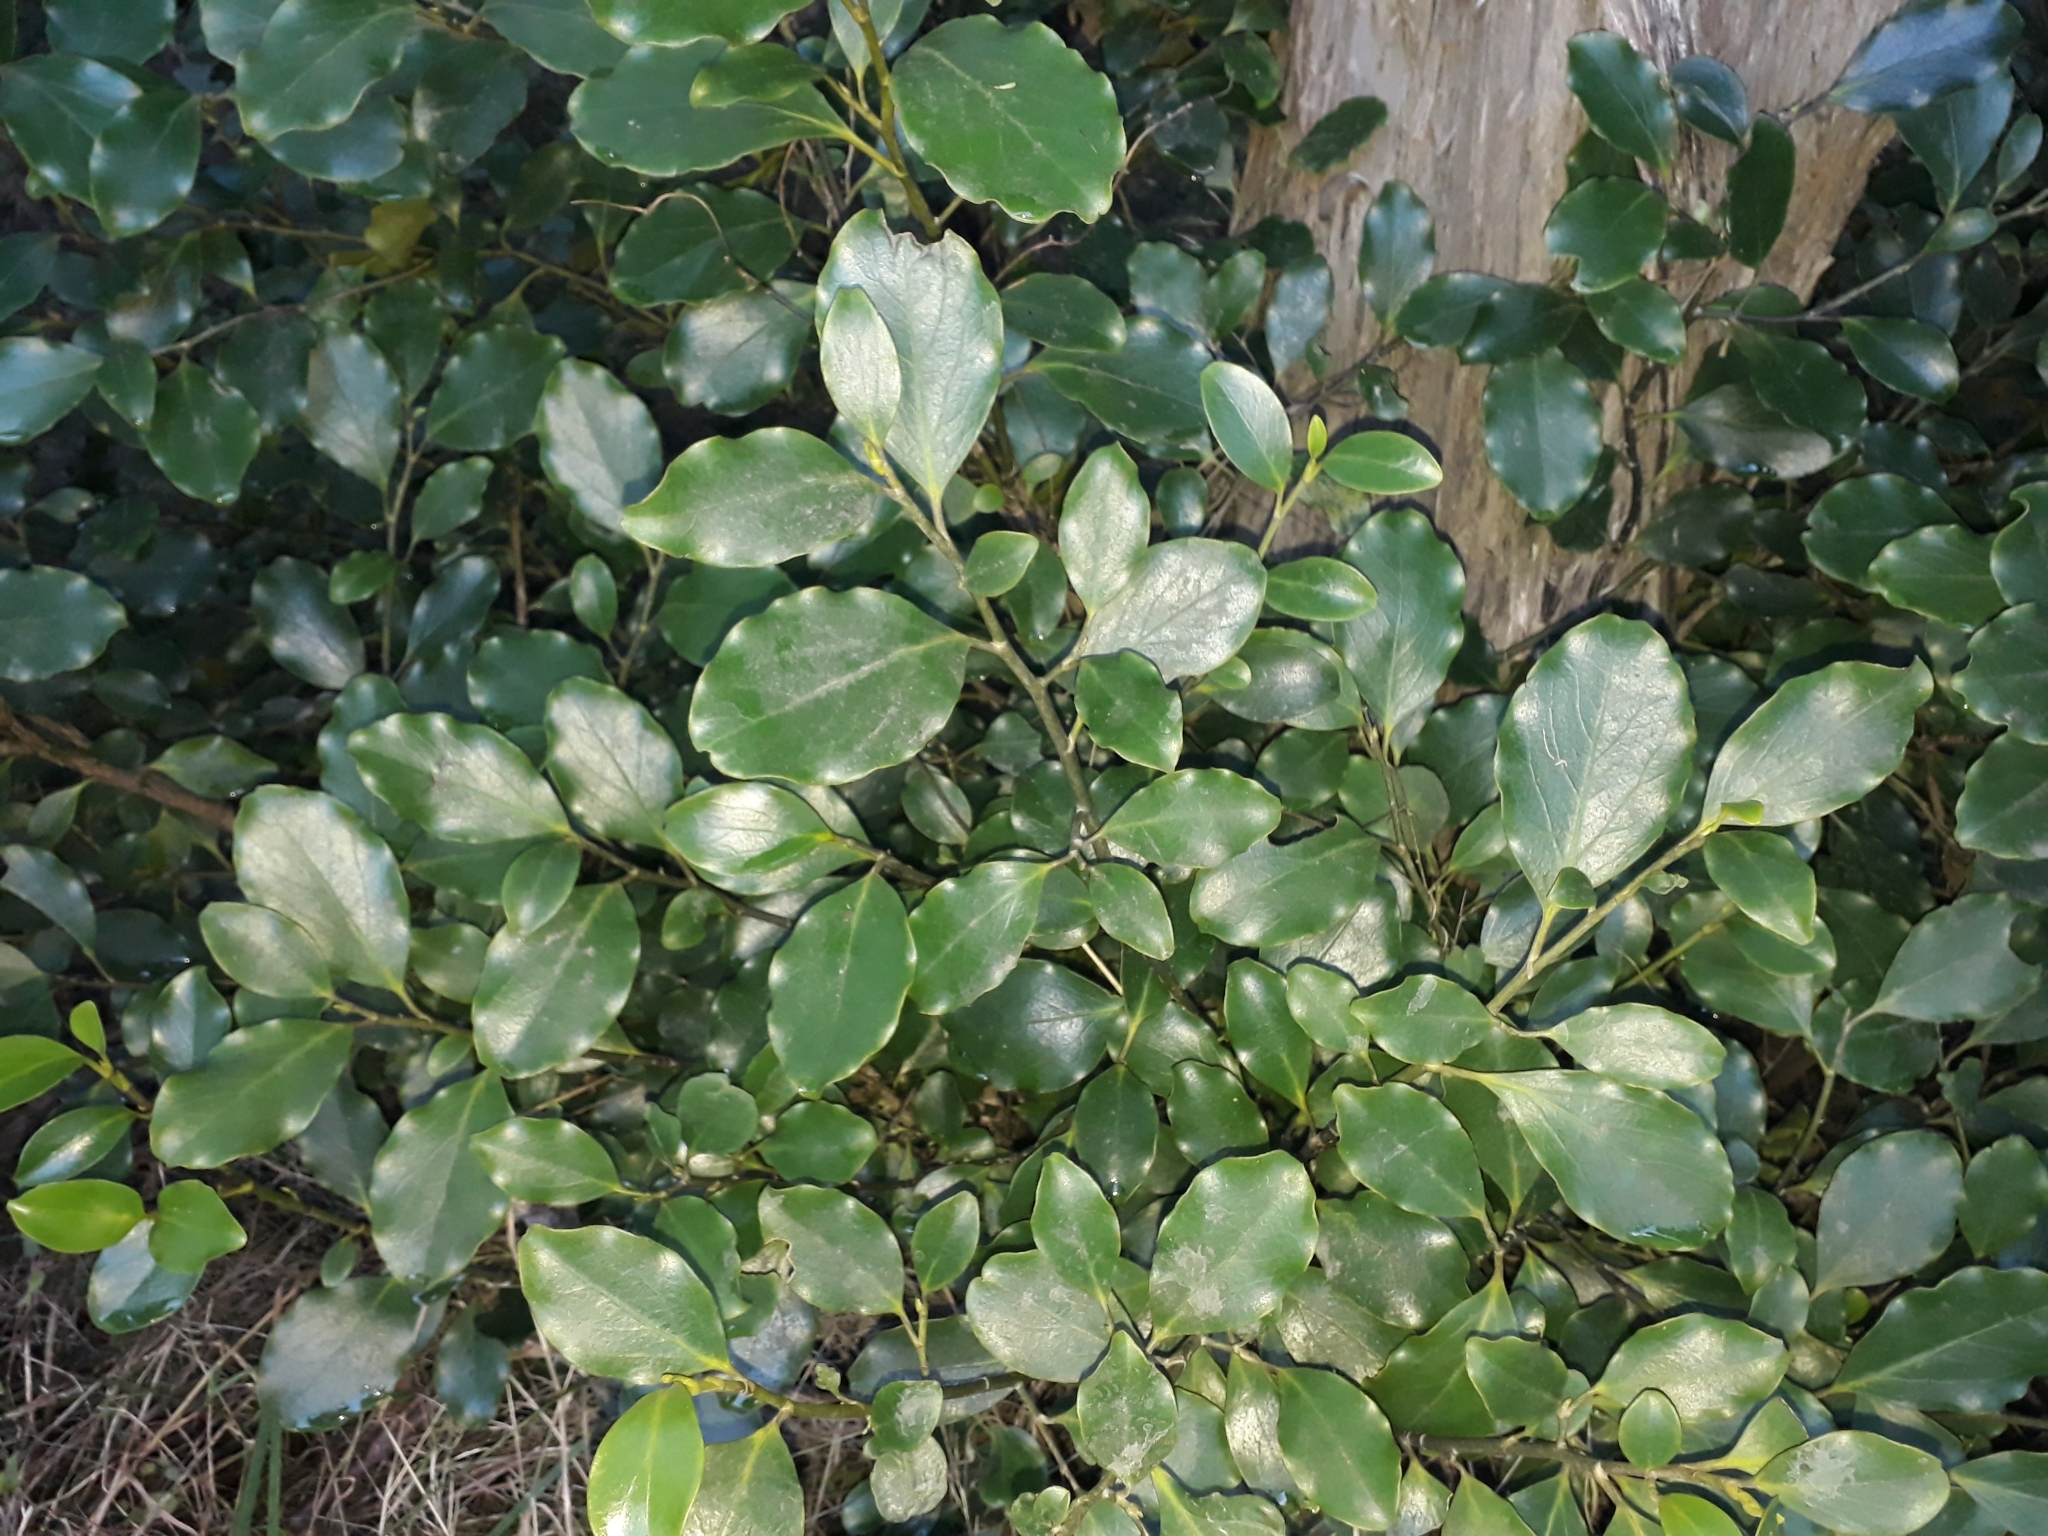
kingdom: Plantae
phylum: Tracheophyta
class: Magnoliopsida
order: Apiales
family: Griseliniaceae
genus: Griselinia
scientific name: Griselinia littoralis
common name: New zealand broadleaf
